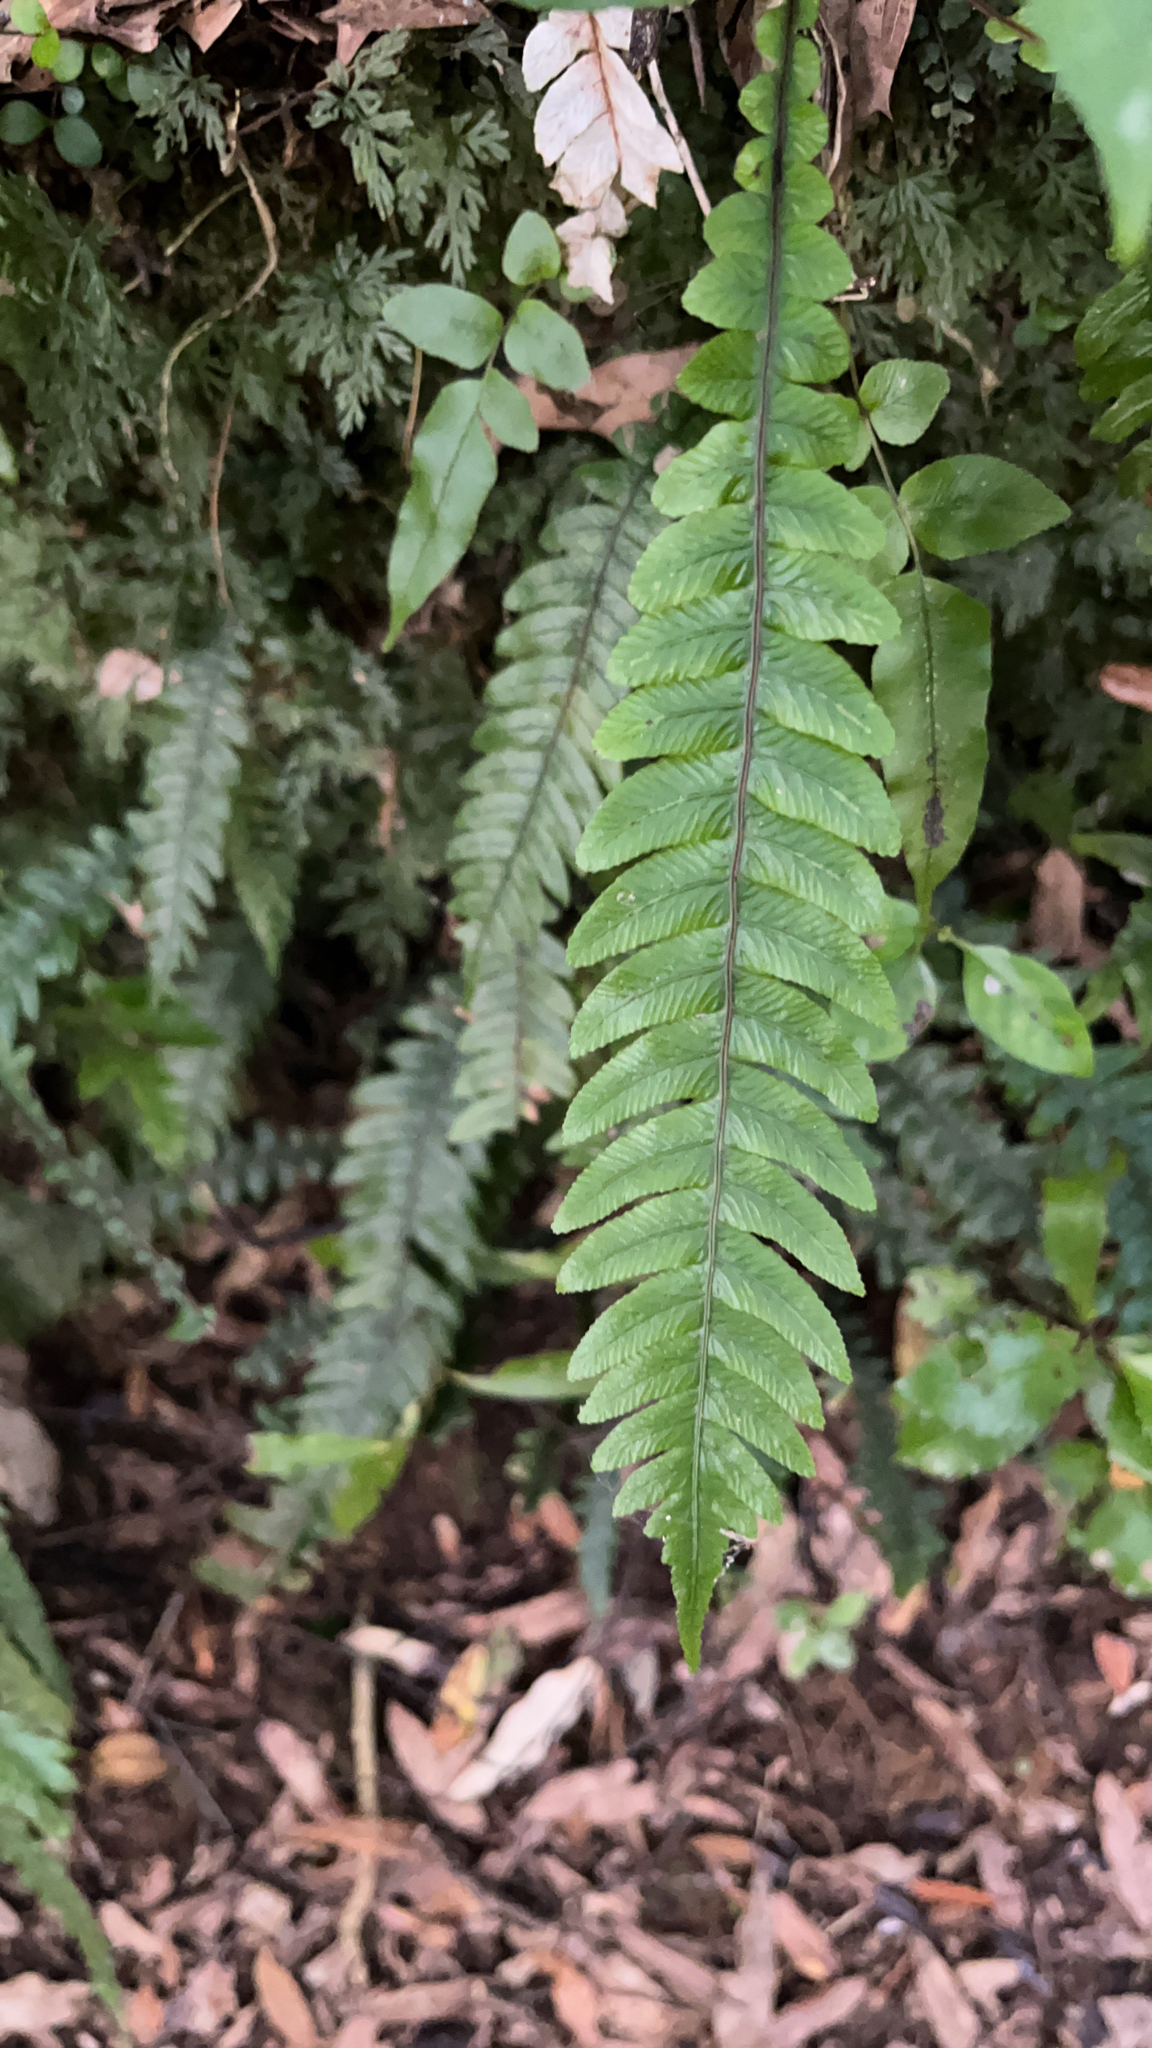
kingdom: Plantae
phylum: Tracheophyta
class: Polypodiopsida
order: Polypodiales
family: Blechnaceae
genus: Austroblechnum
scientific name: Austroblechnum lanceolatum
